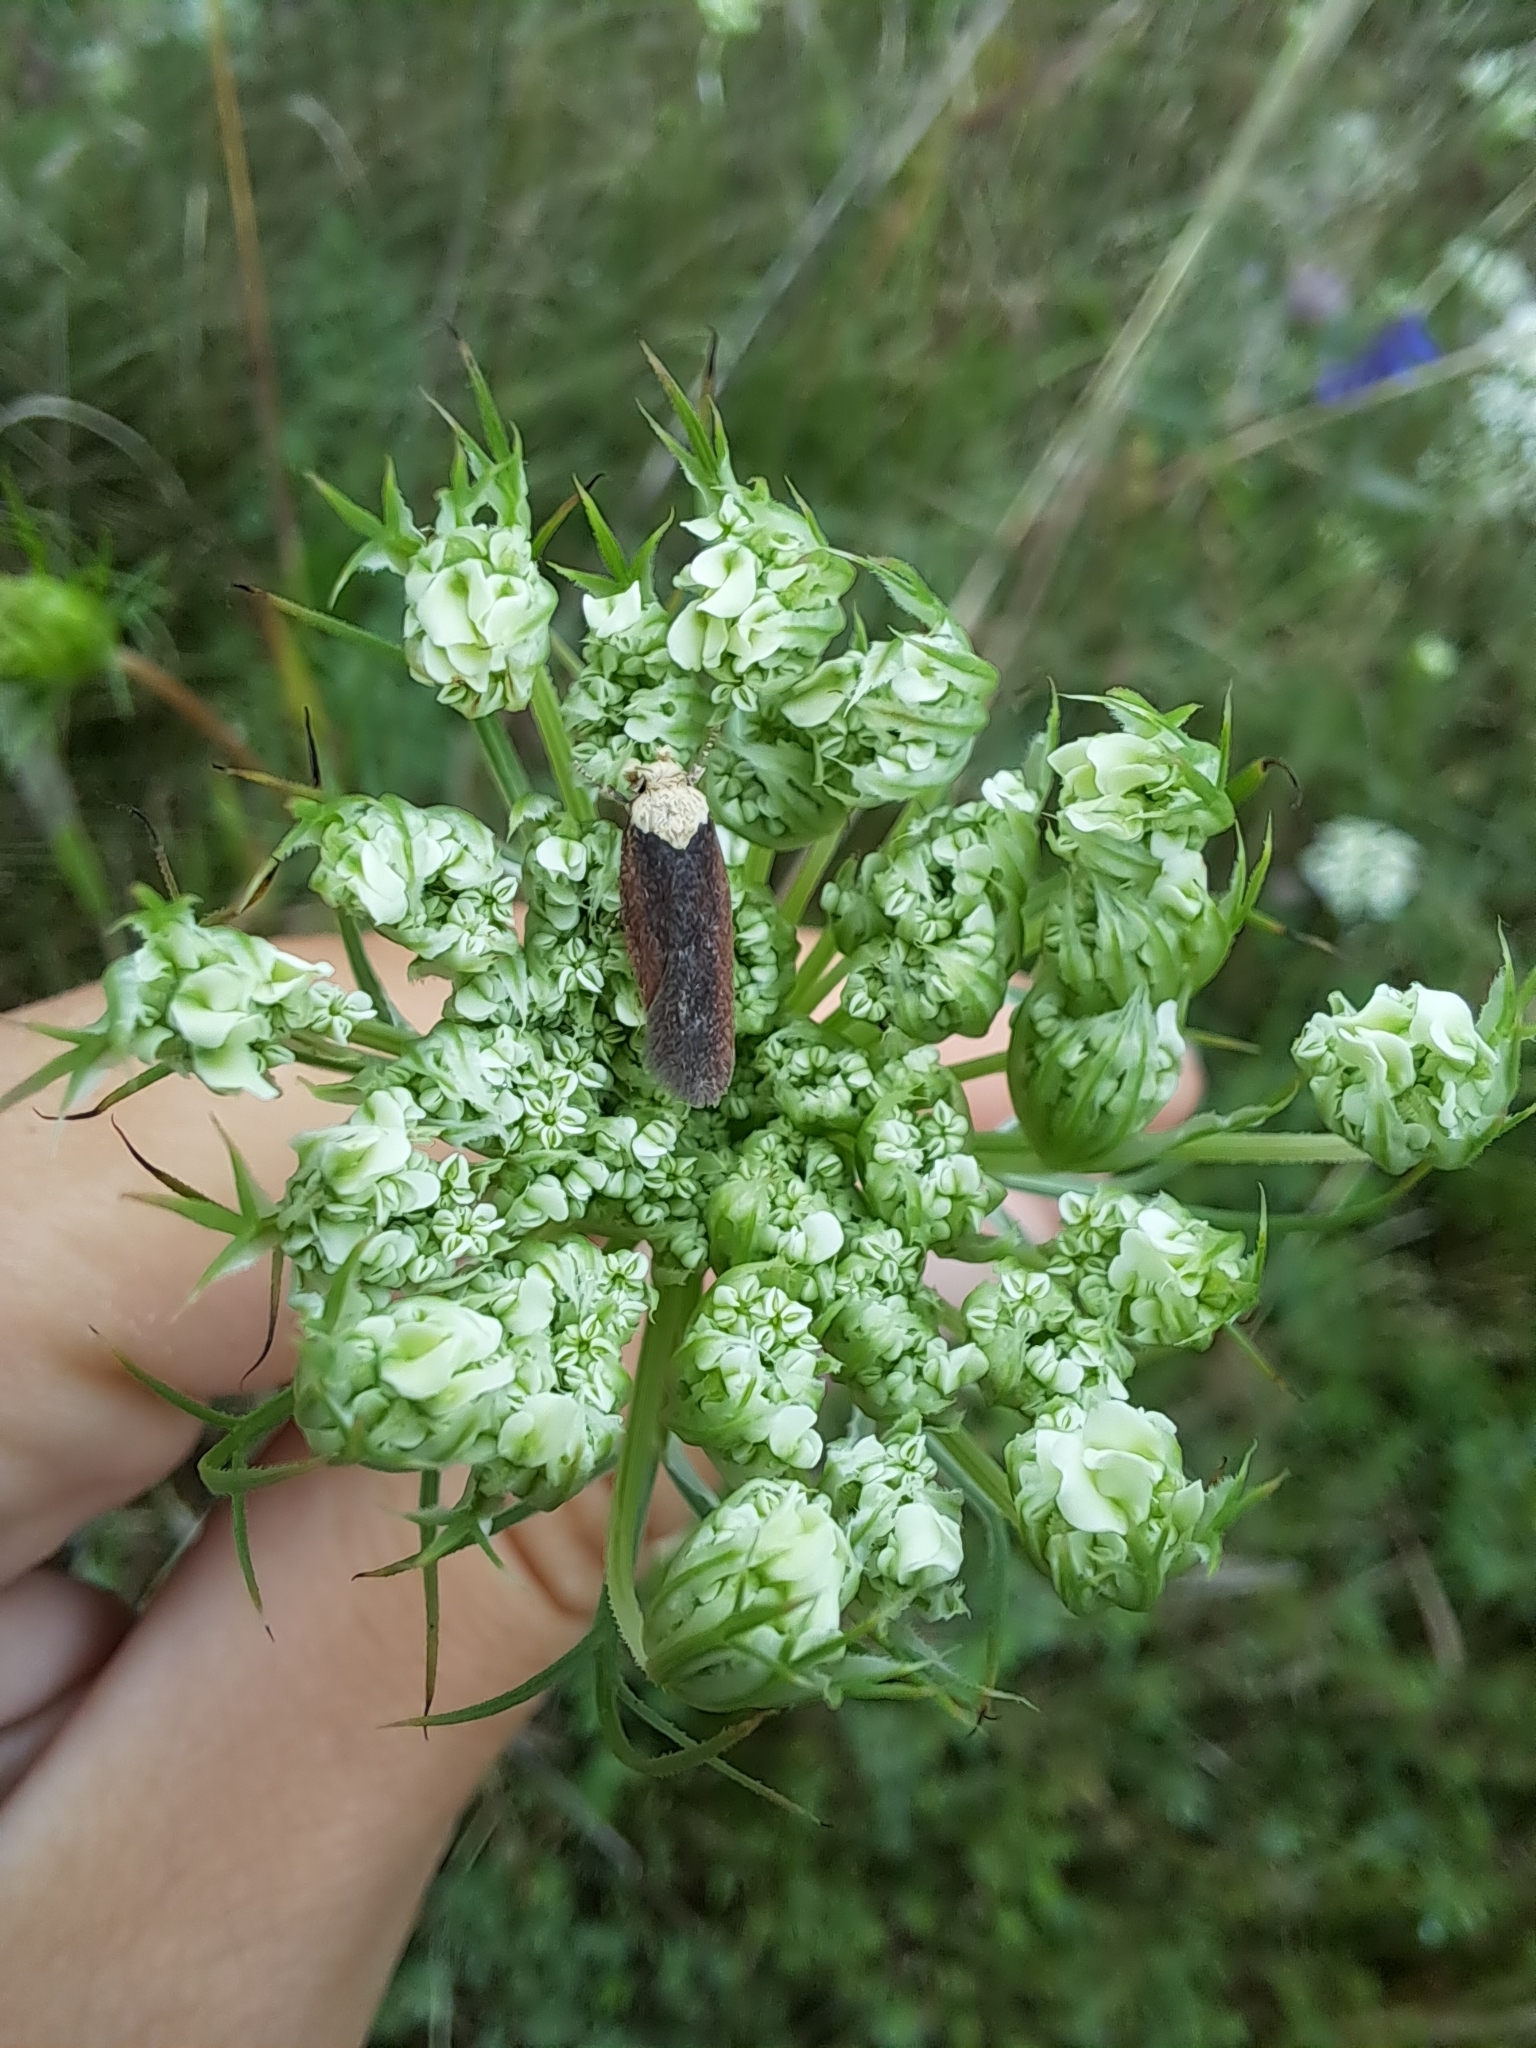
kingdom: Animalia
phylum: Arthropoda
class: Insecta
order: Lepidoptera
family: Depressariidae
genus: Depressaria
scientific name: Depressaria depressana
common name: Lost flat-body
